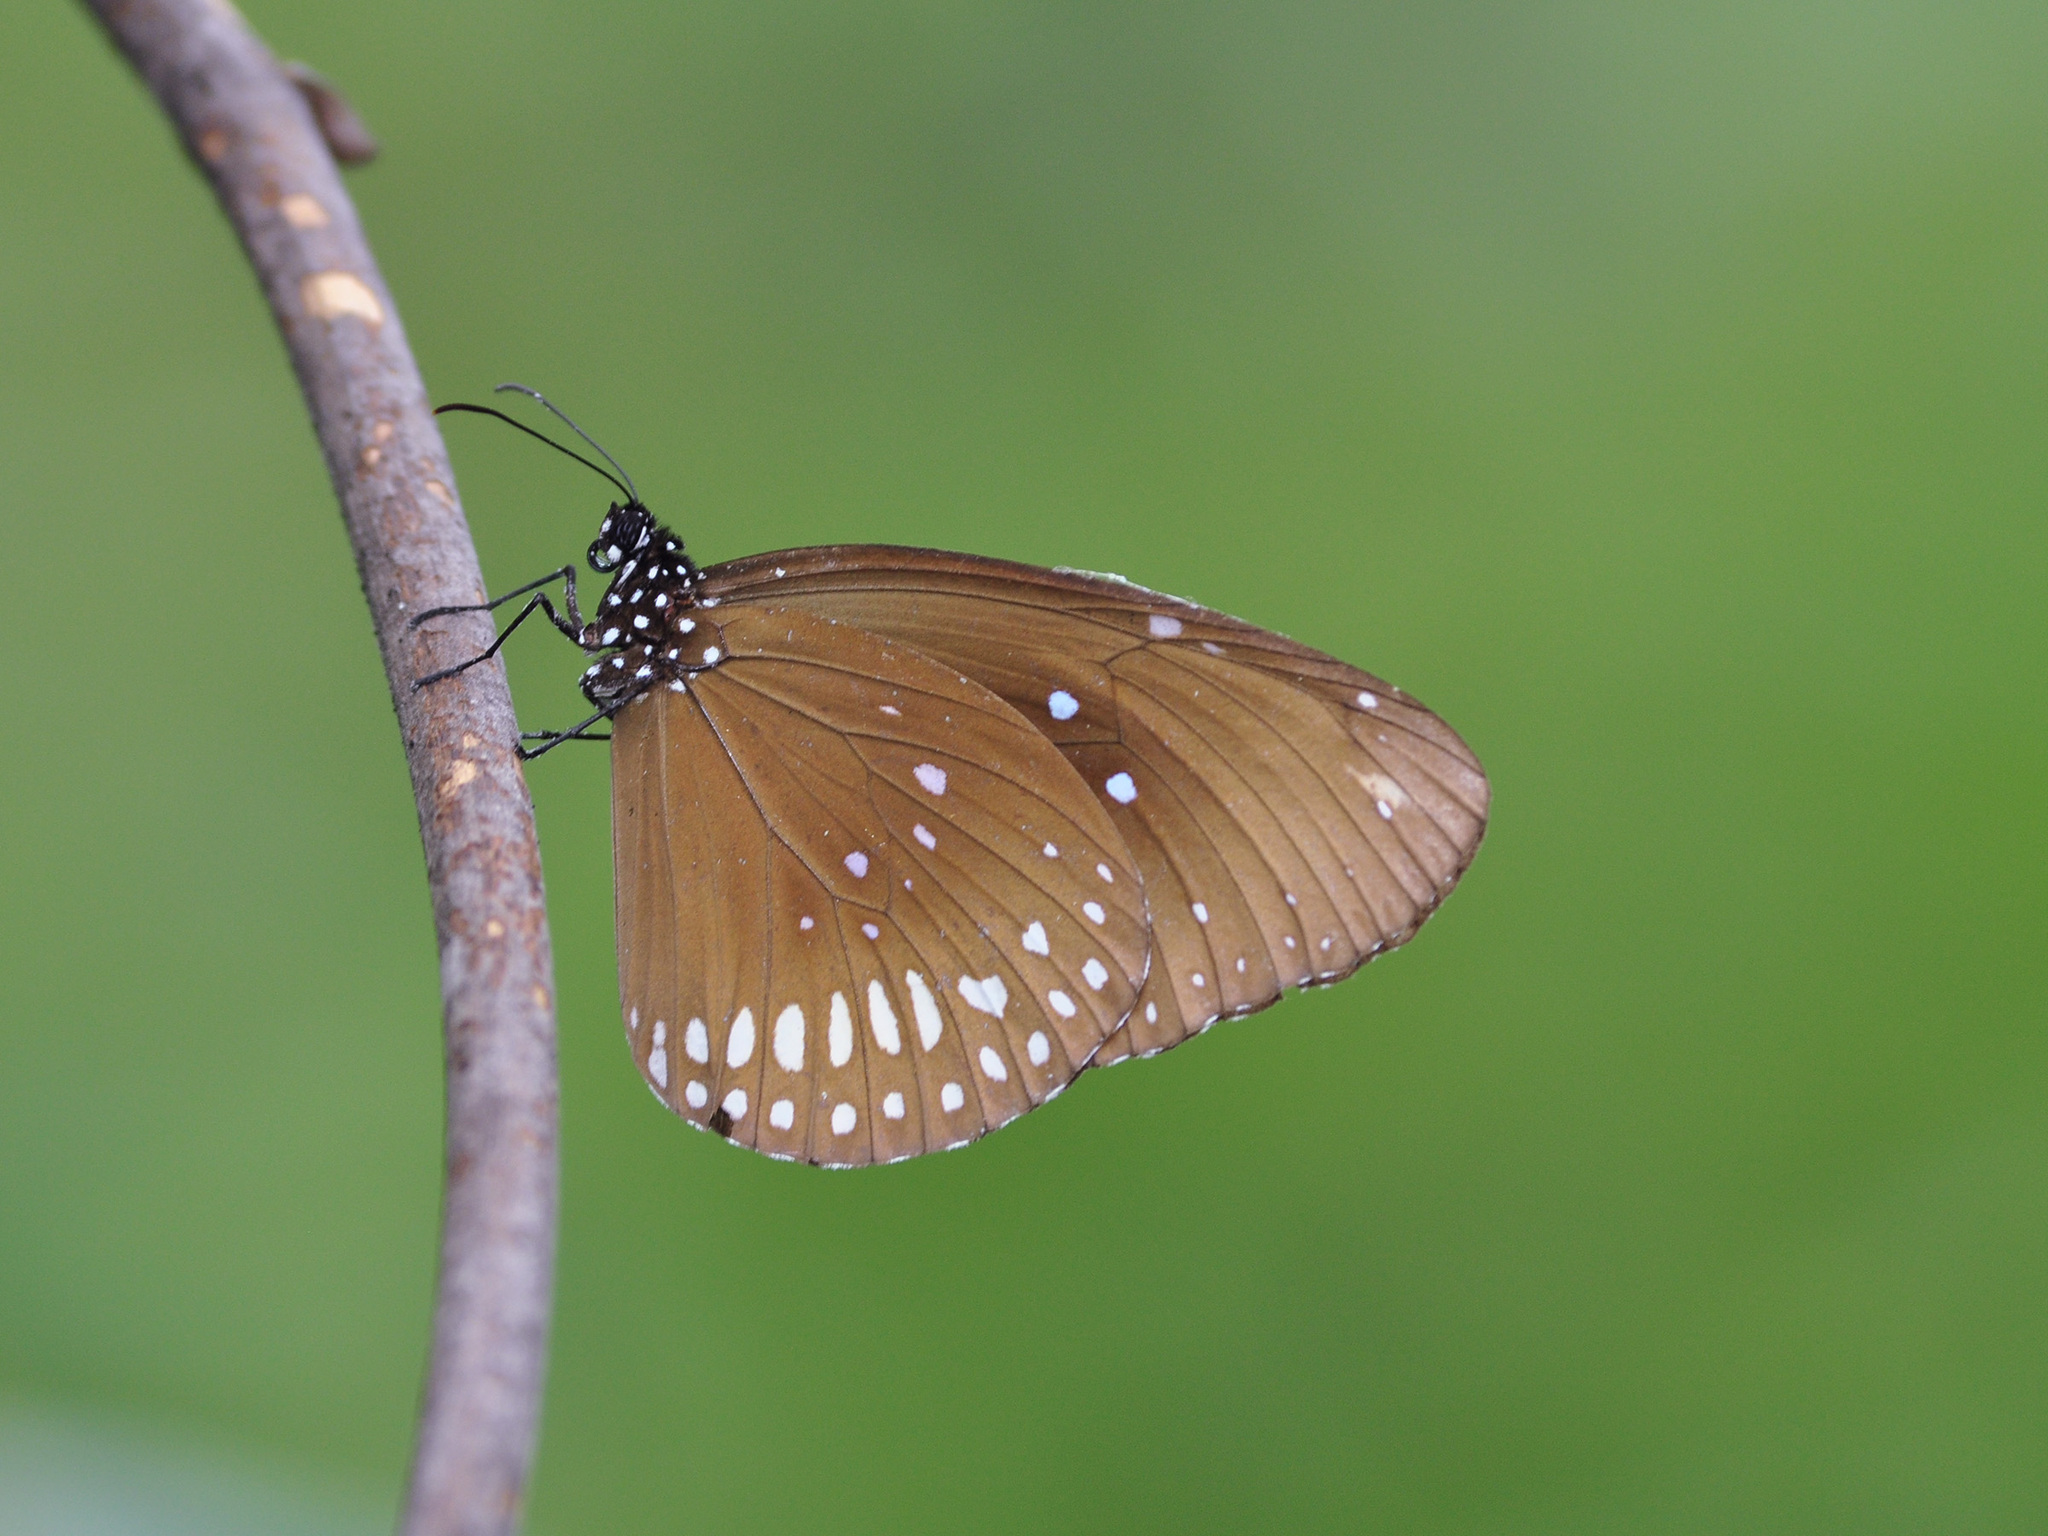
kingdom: Animalia
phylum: Arthropoda
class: Insecta
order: Lepidoptera
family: Nymphalidae
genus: Euploea
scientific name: Euploea core
